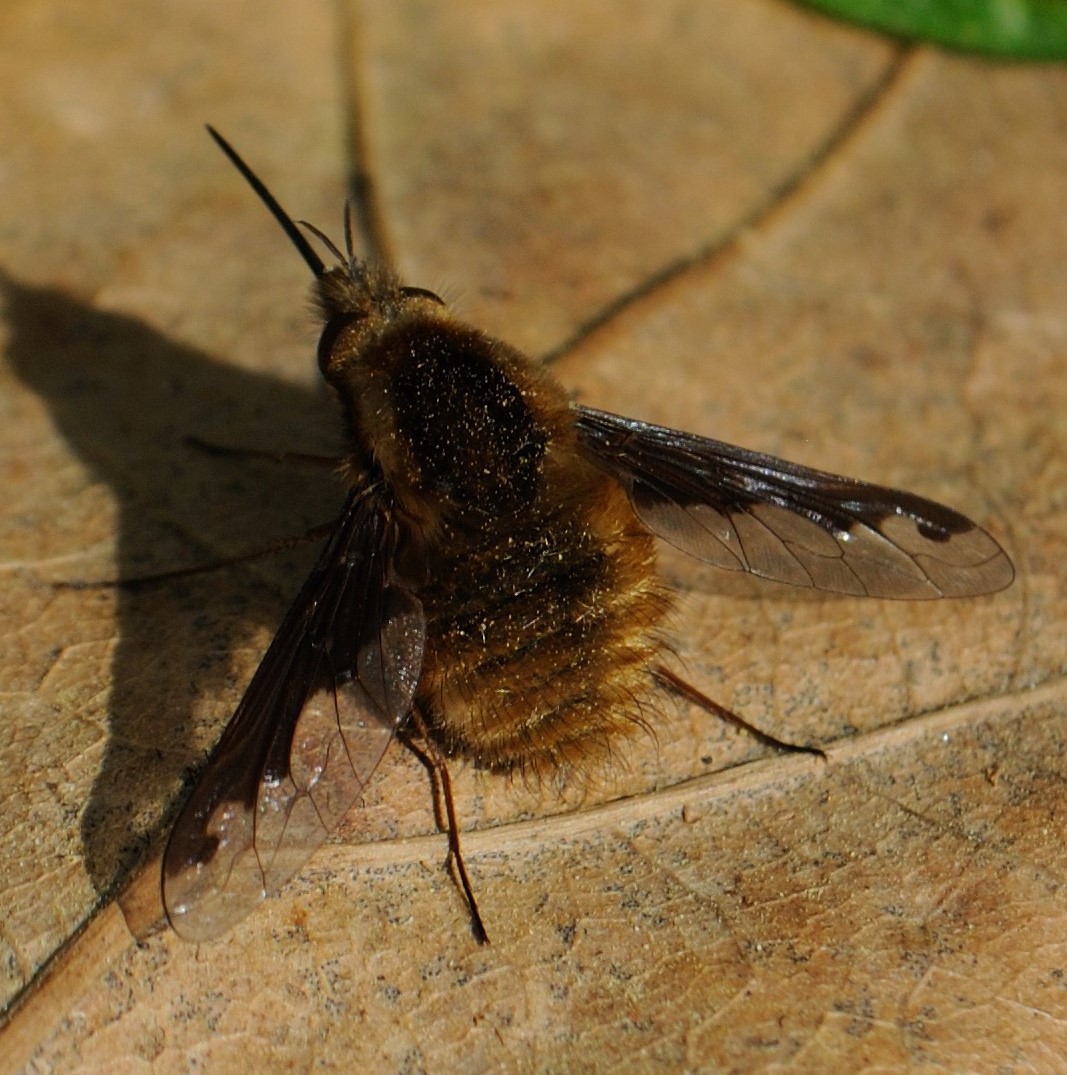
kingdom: Animalia
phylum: Arthropoda
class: Insecta
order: Diptera
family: Bombyliidae
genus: Bombylius
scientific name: Bombylius major
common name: Bee fly
